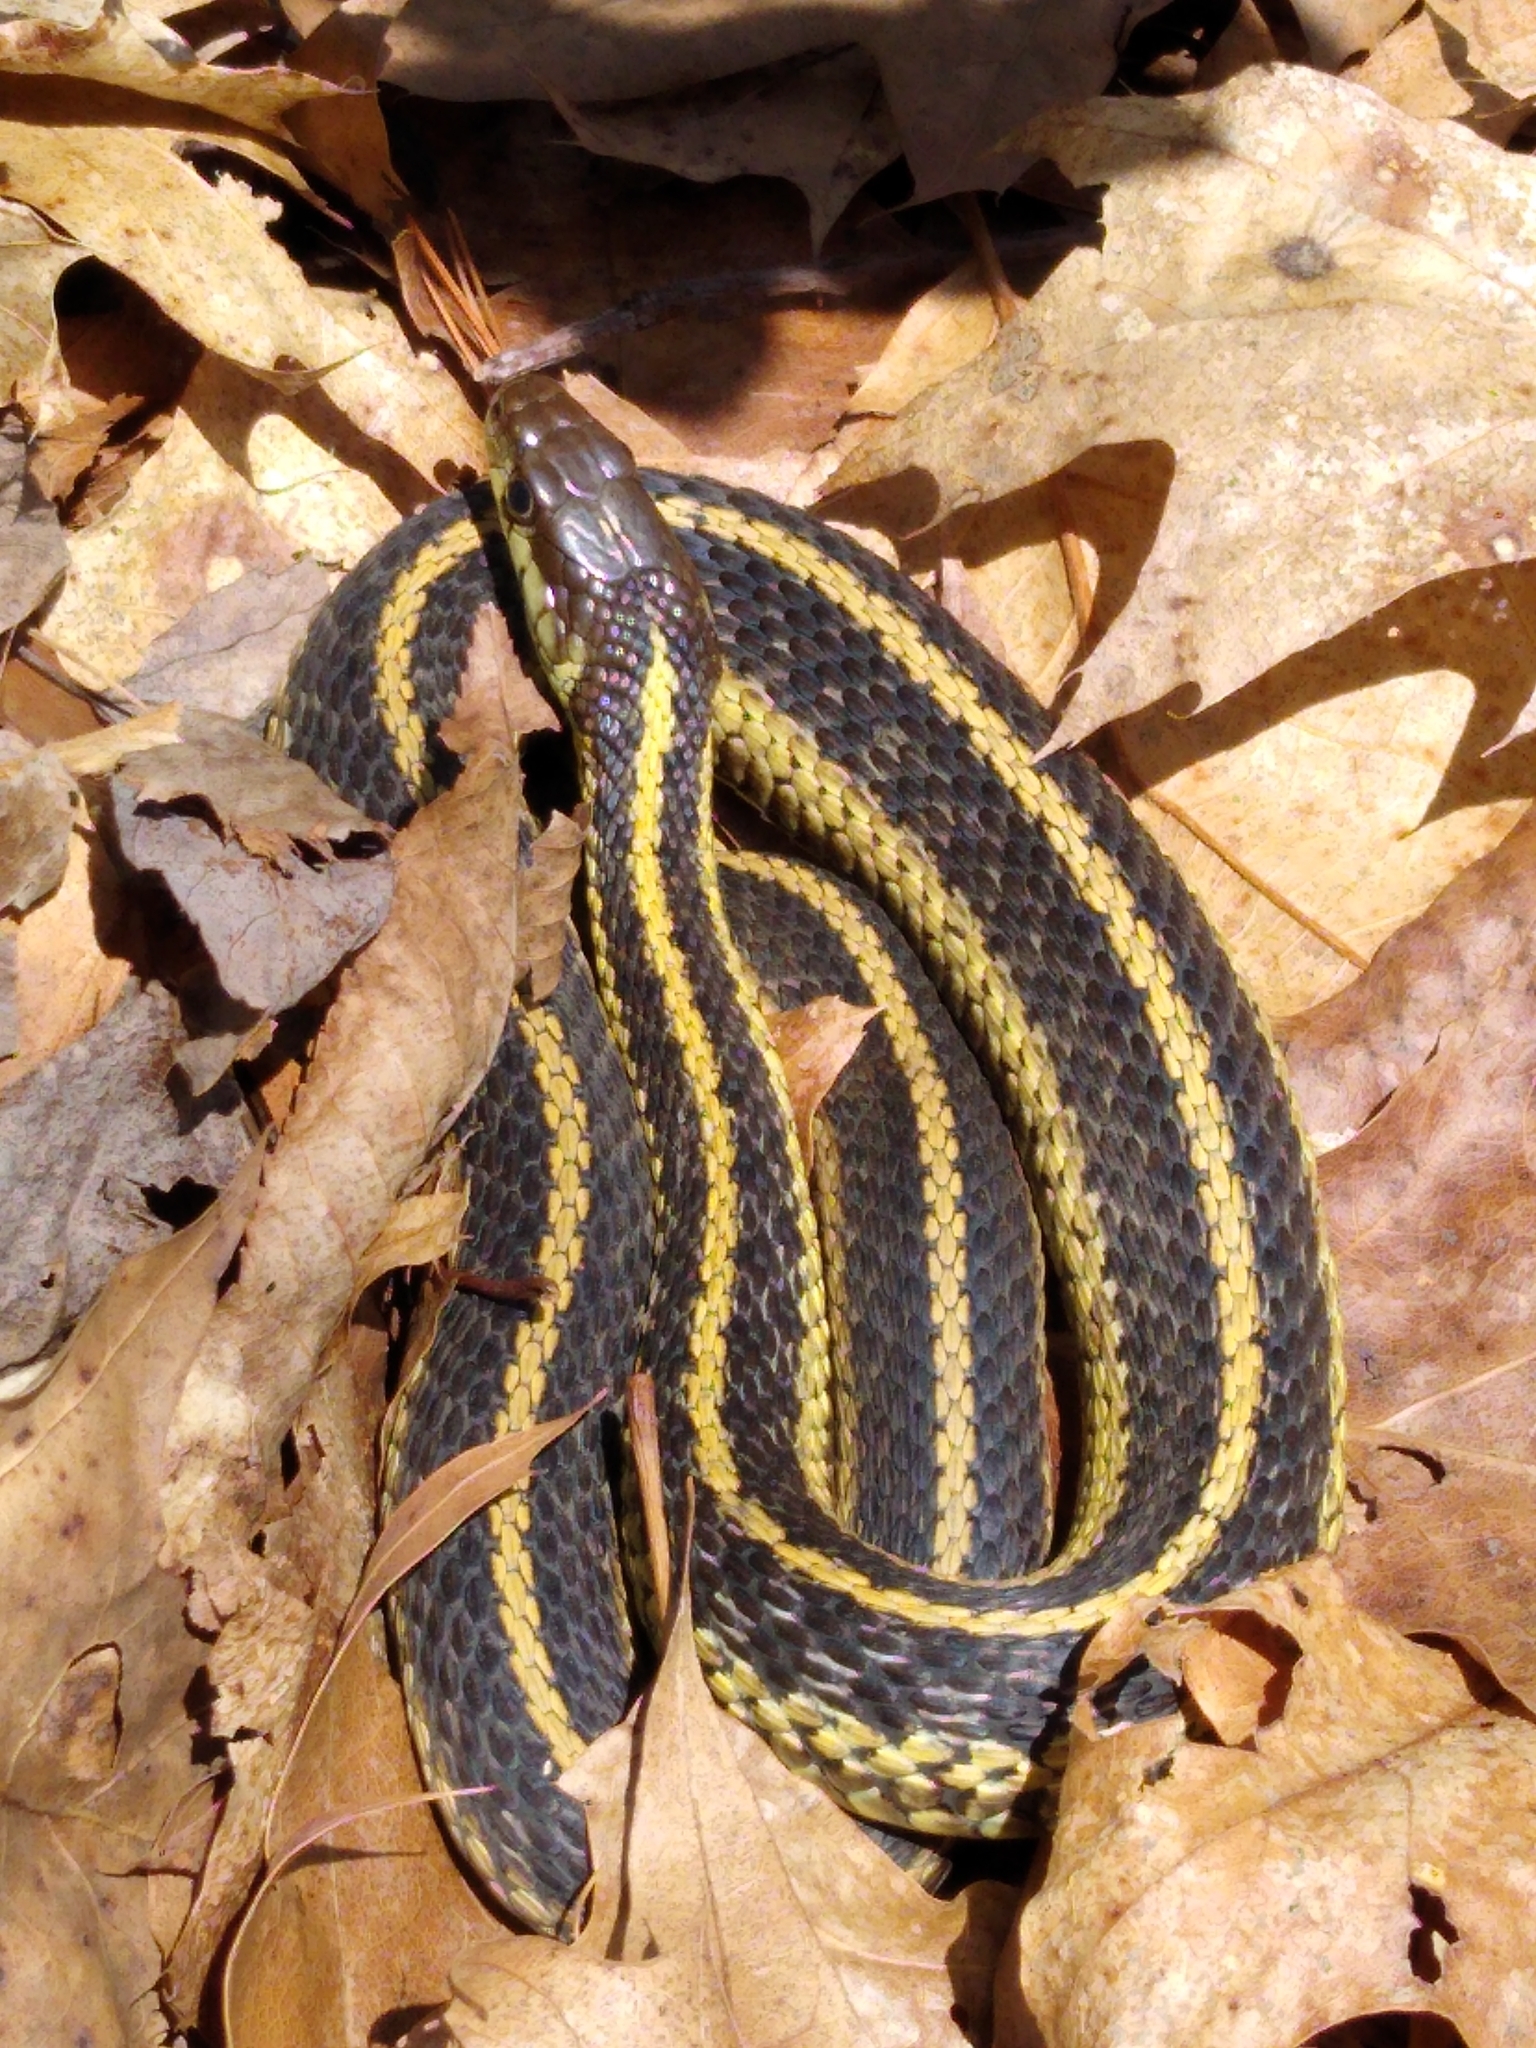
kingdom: Animalia
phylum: Chordata
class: Squamata
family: Colubridae
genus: Thamnophis
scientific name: Thamnophis sirtalis
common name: Common garter snake
